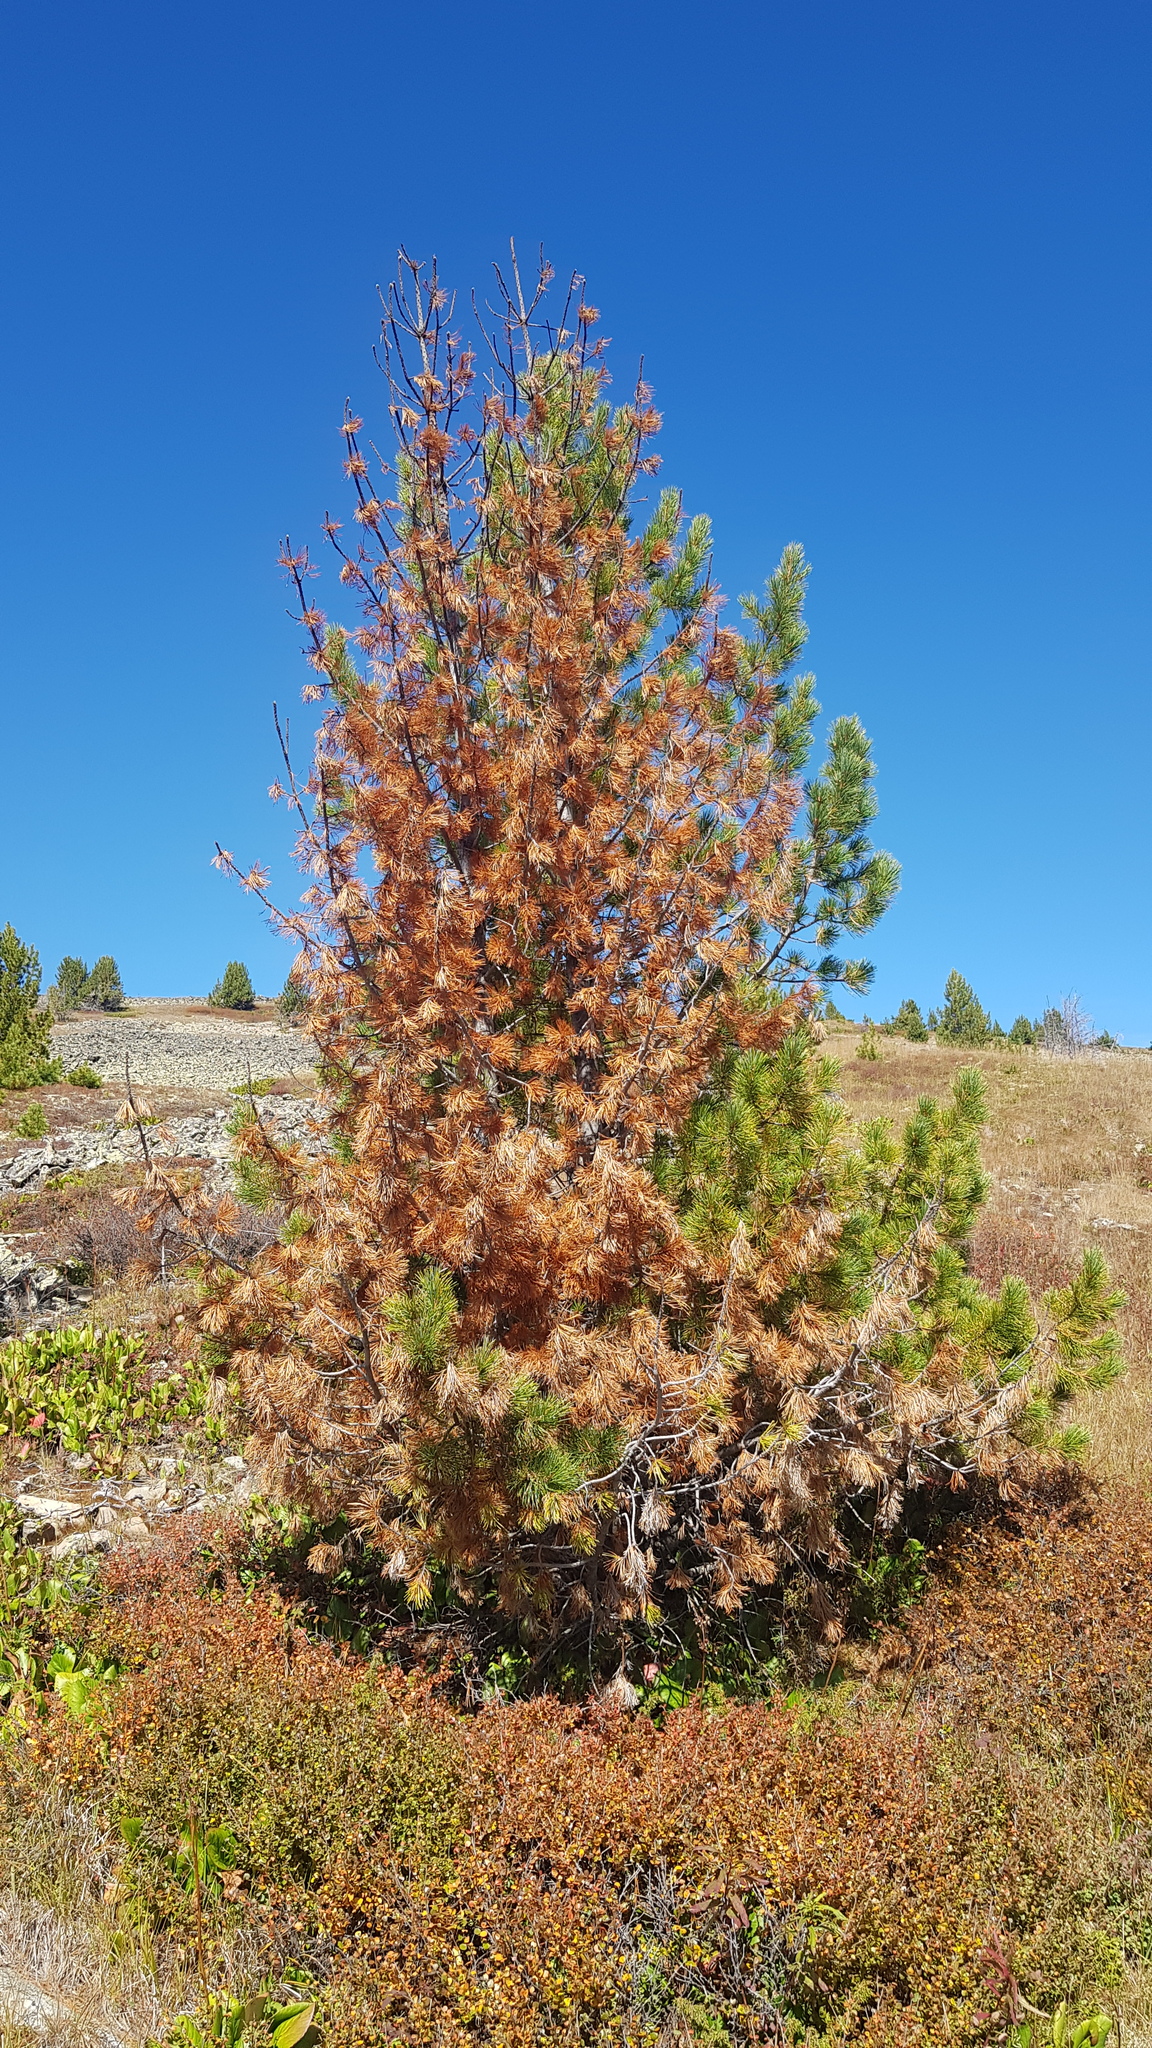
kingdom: Plantae
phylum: Tracheophyta
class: Pinopsida
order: Pinales
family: Pinaceae
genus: Pinus
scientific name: Pinus sibirica
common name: Siberian pine
